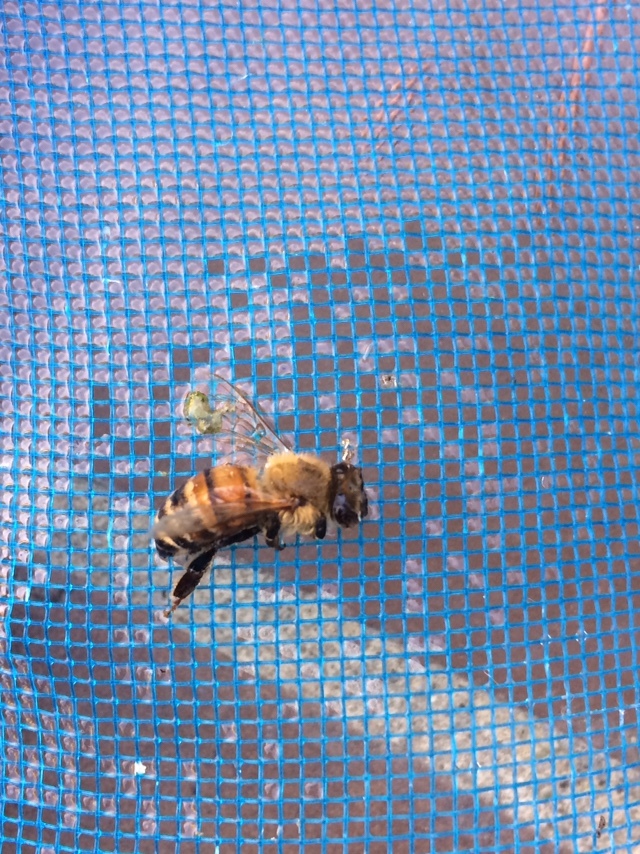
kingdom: Animalia
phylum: Arthropoda
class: Insecta
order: Hymenoptera
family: Apidae
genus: Apis
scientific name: Apis mellifera
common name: Honey bee
